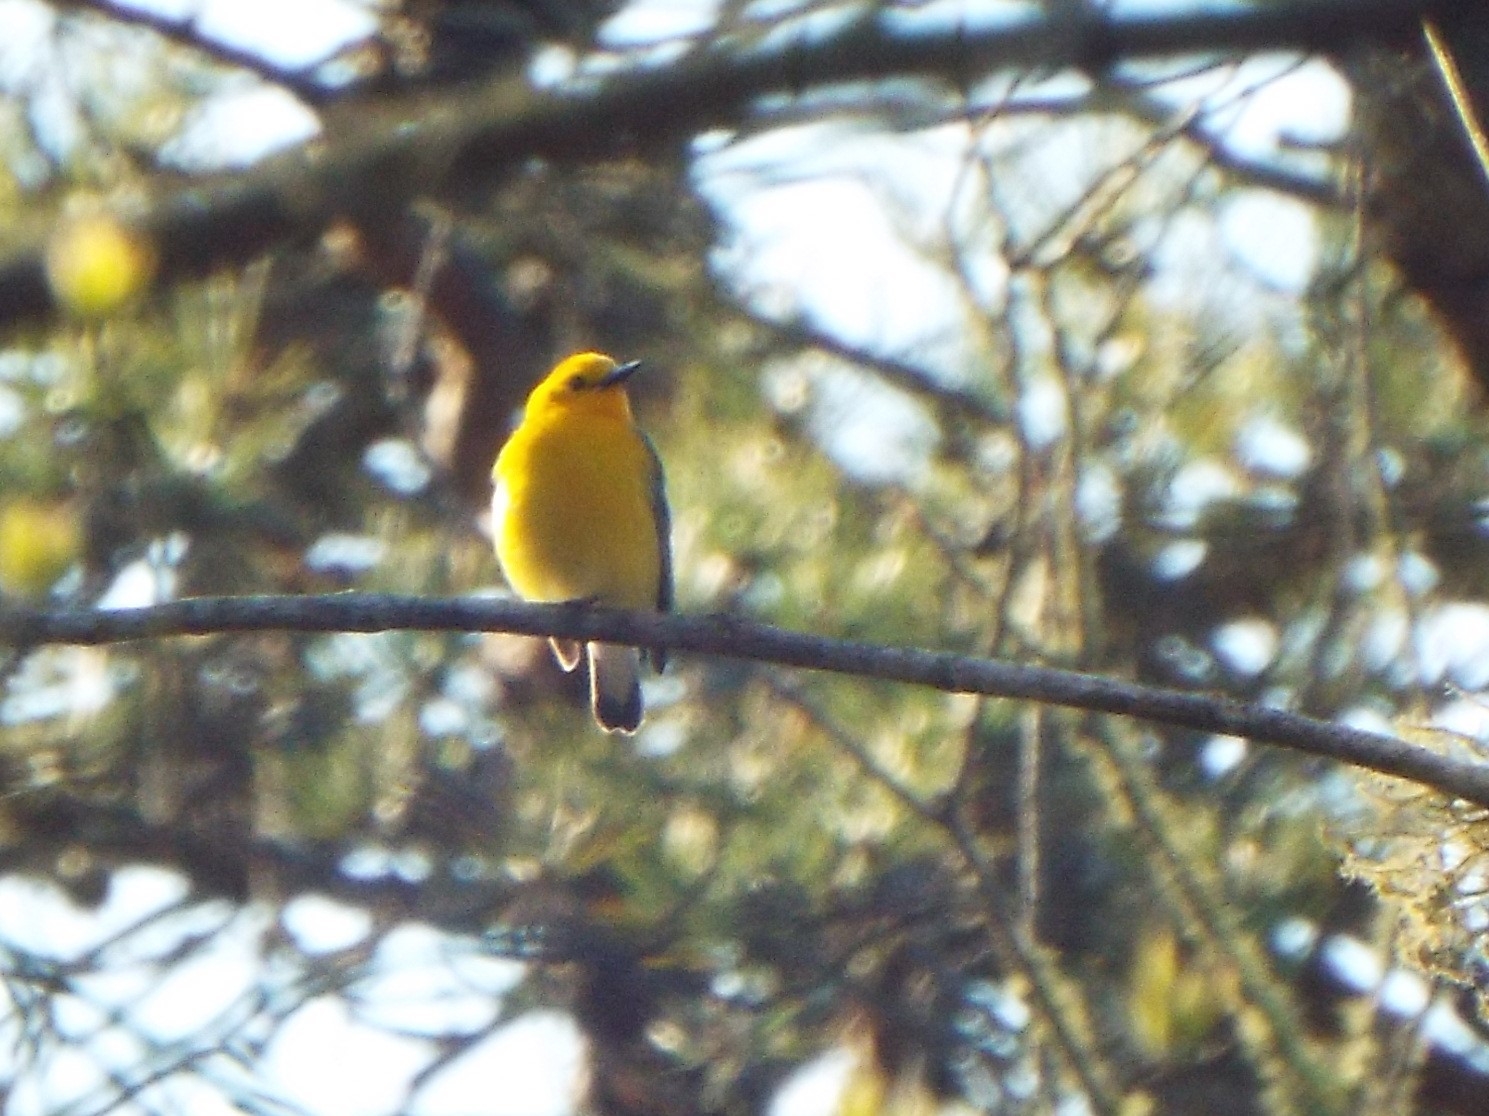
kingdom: Animalia
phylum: Chordata
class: Aves
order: Passeriformes
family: Parulidae
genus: Protonotaria
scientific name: Protonotaria citrea
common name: Prothonotary warbler
